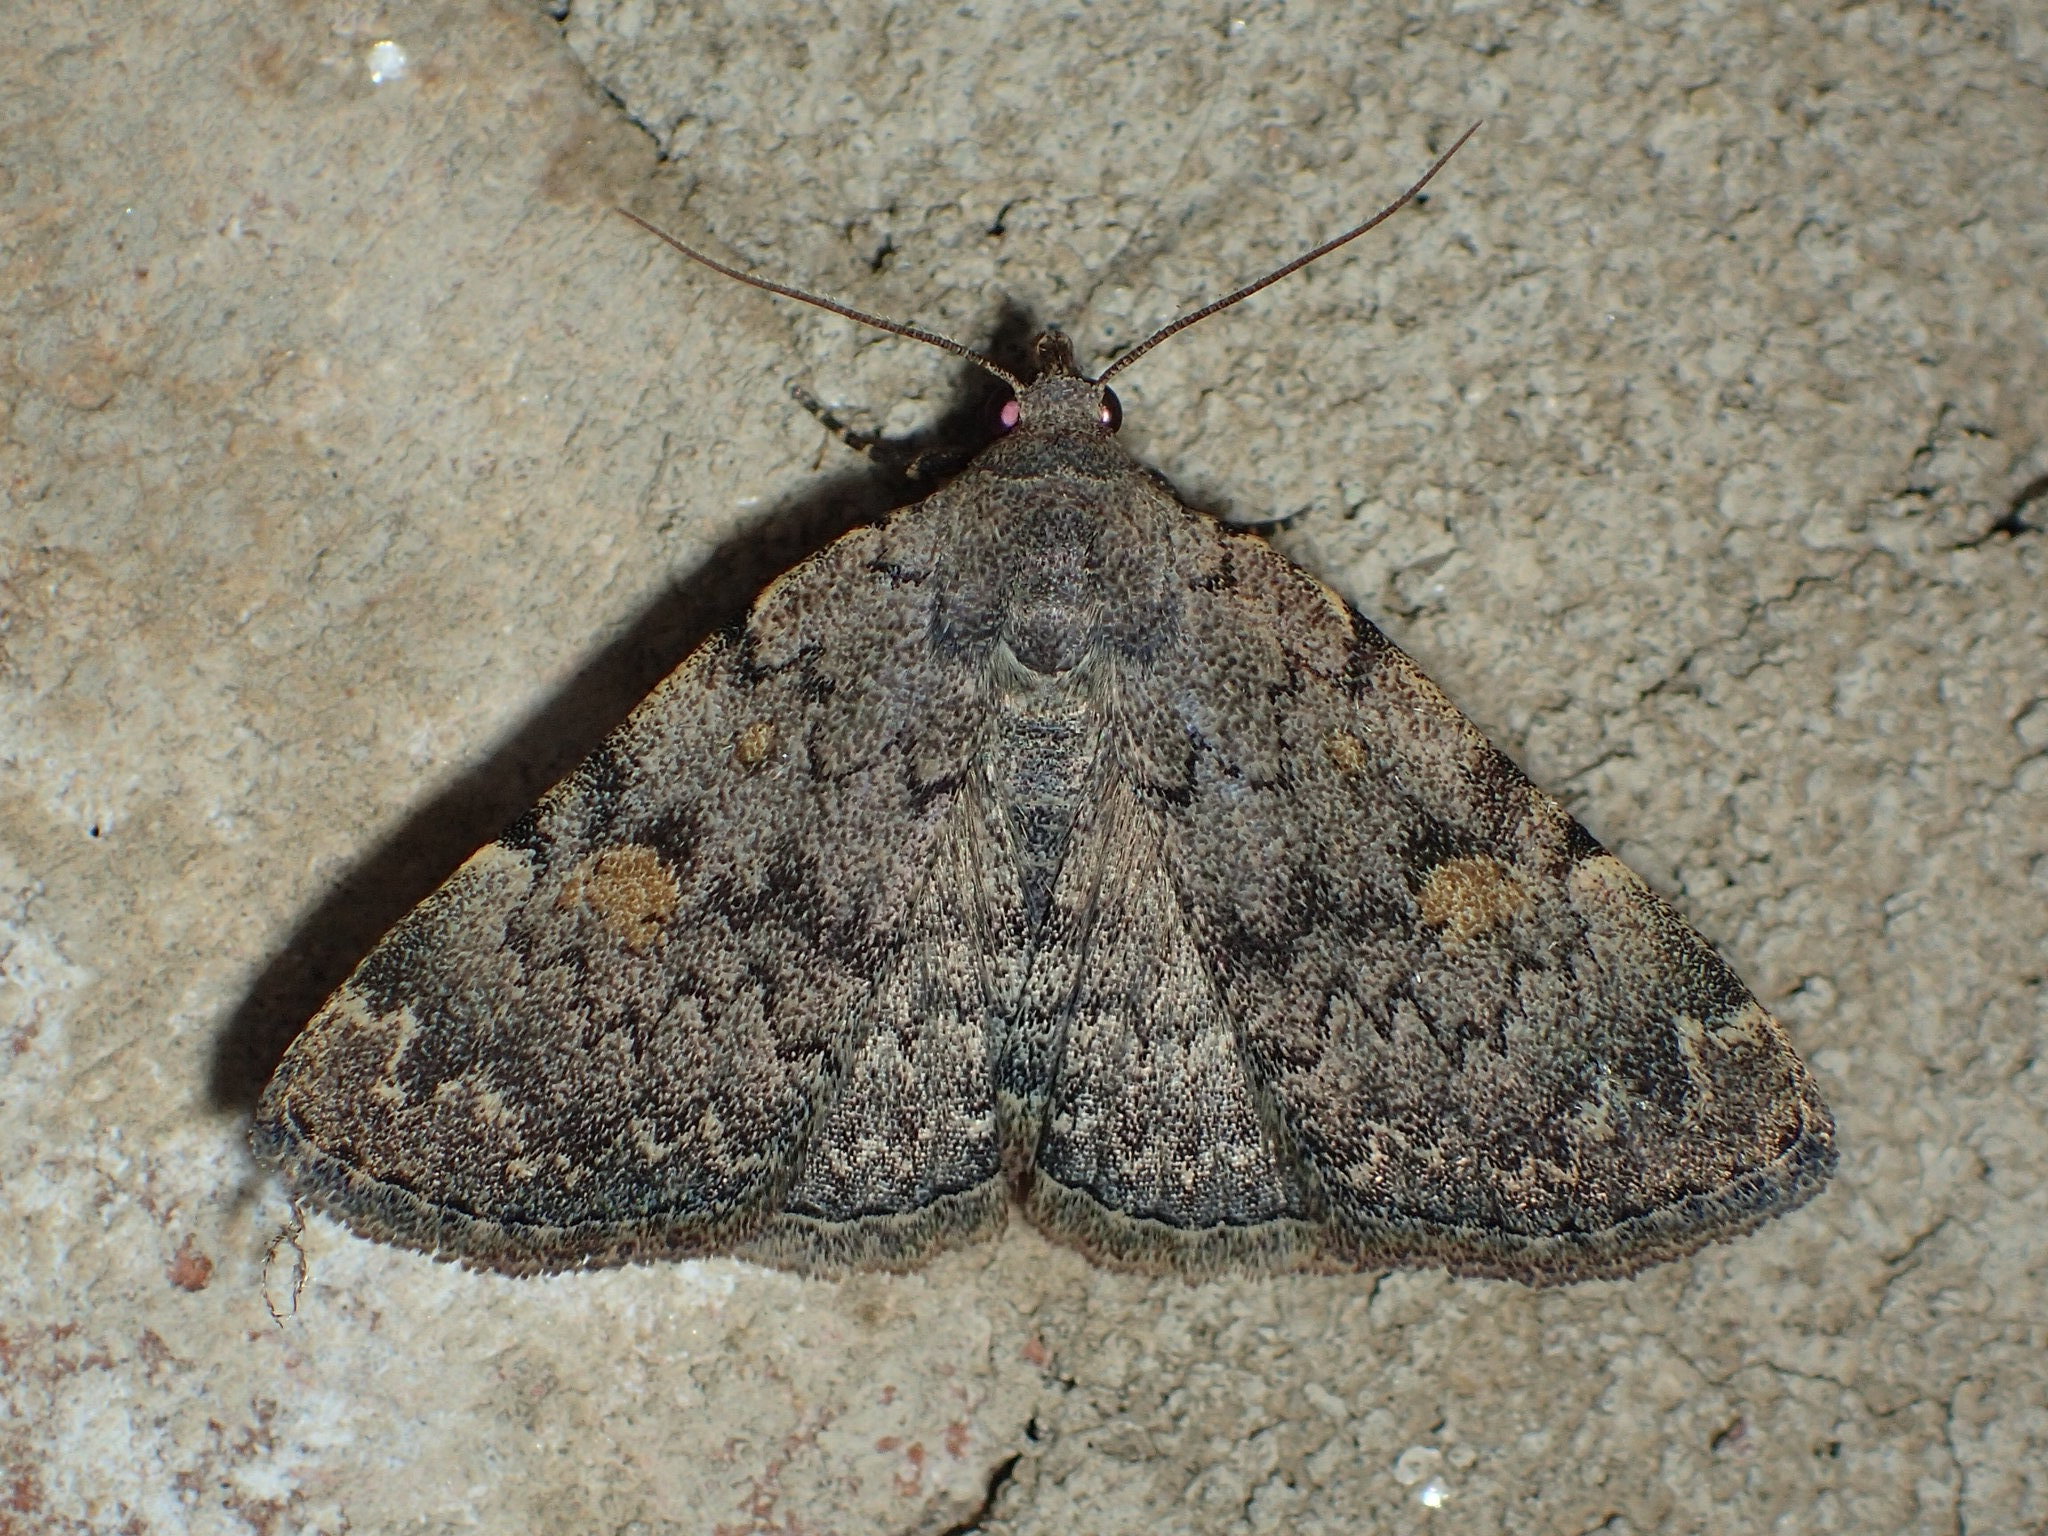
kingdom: Animalia
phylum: Arthropoda
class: Insecta
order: Lepidoptera
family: Erebidae
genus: Idia
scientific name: Idia aemula
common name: Common idia moth
